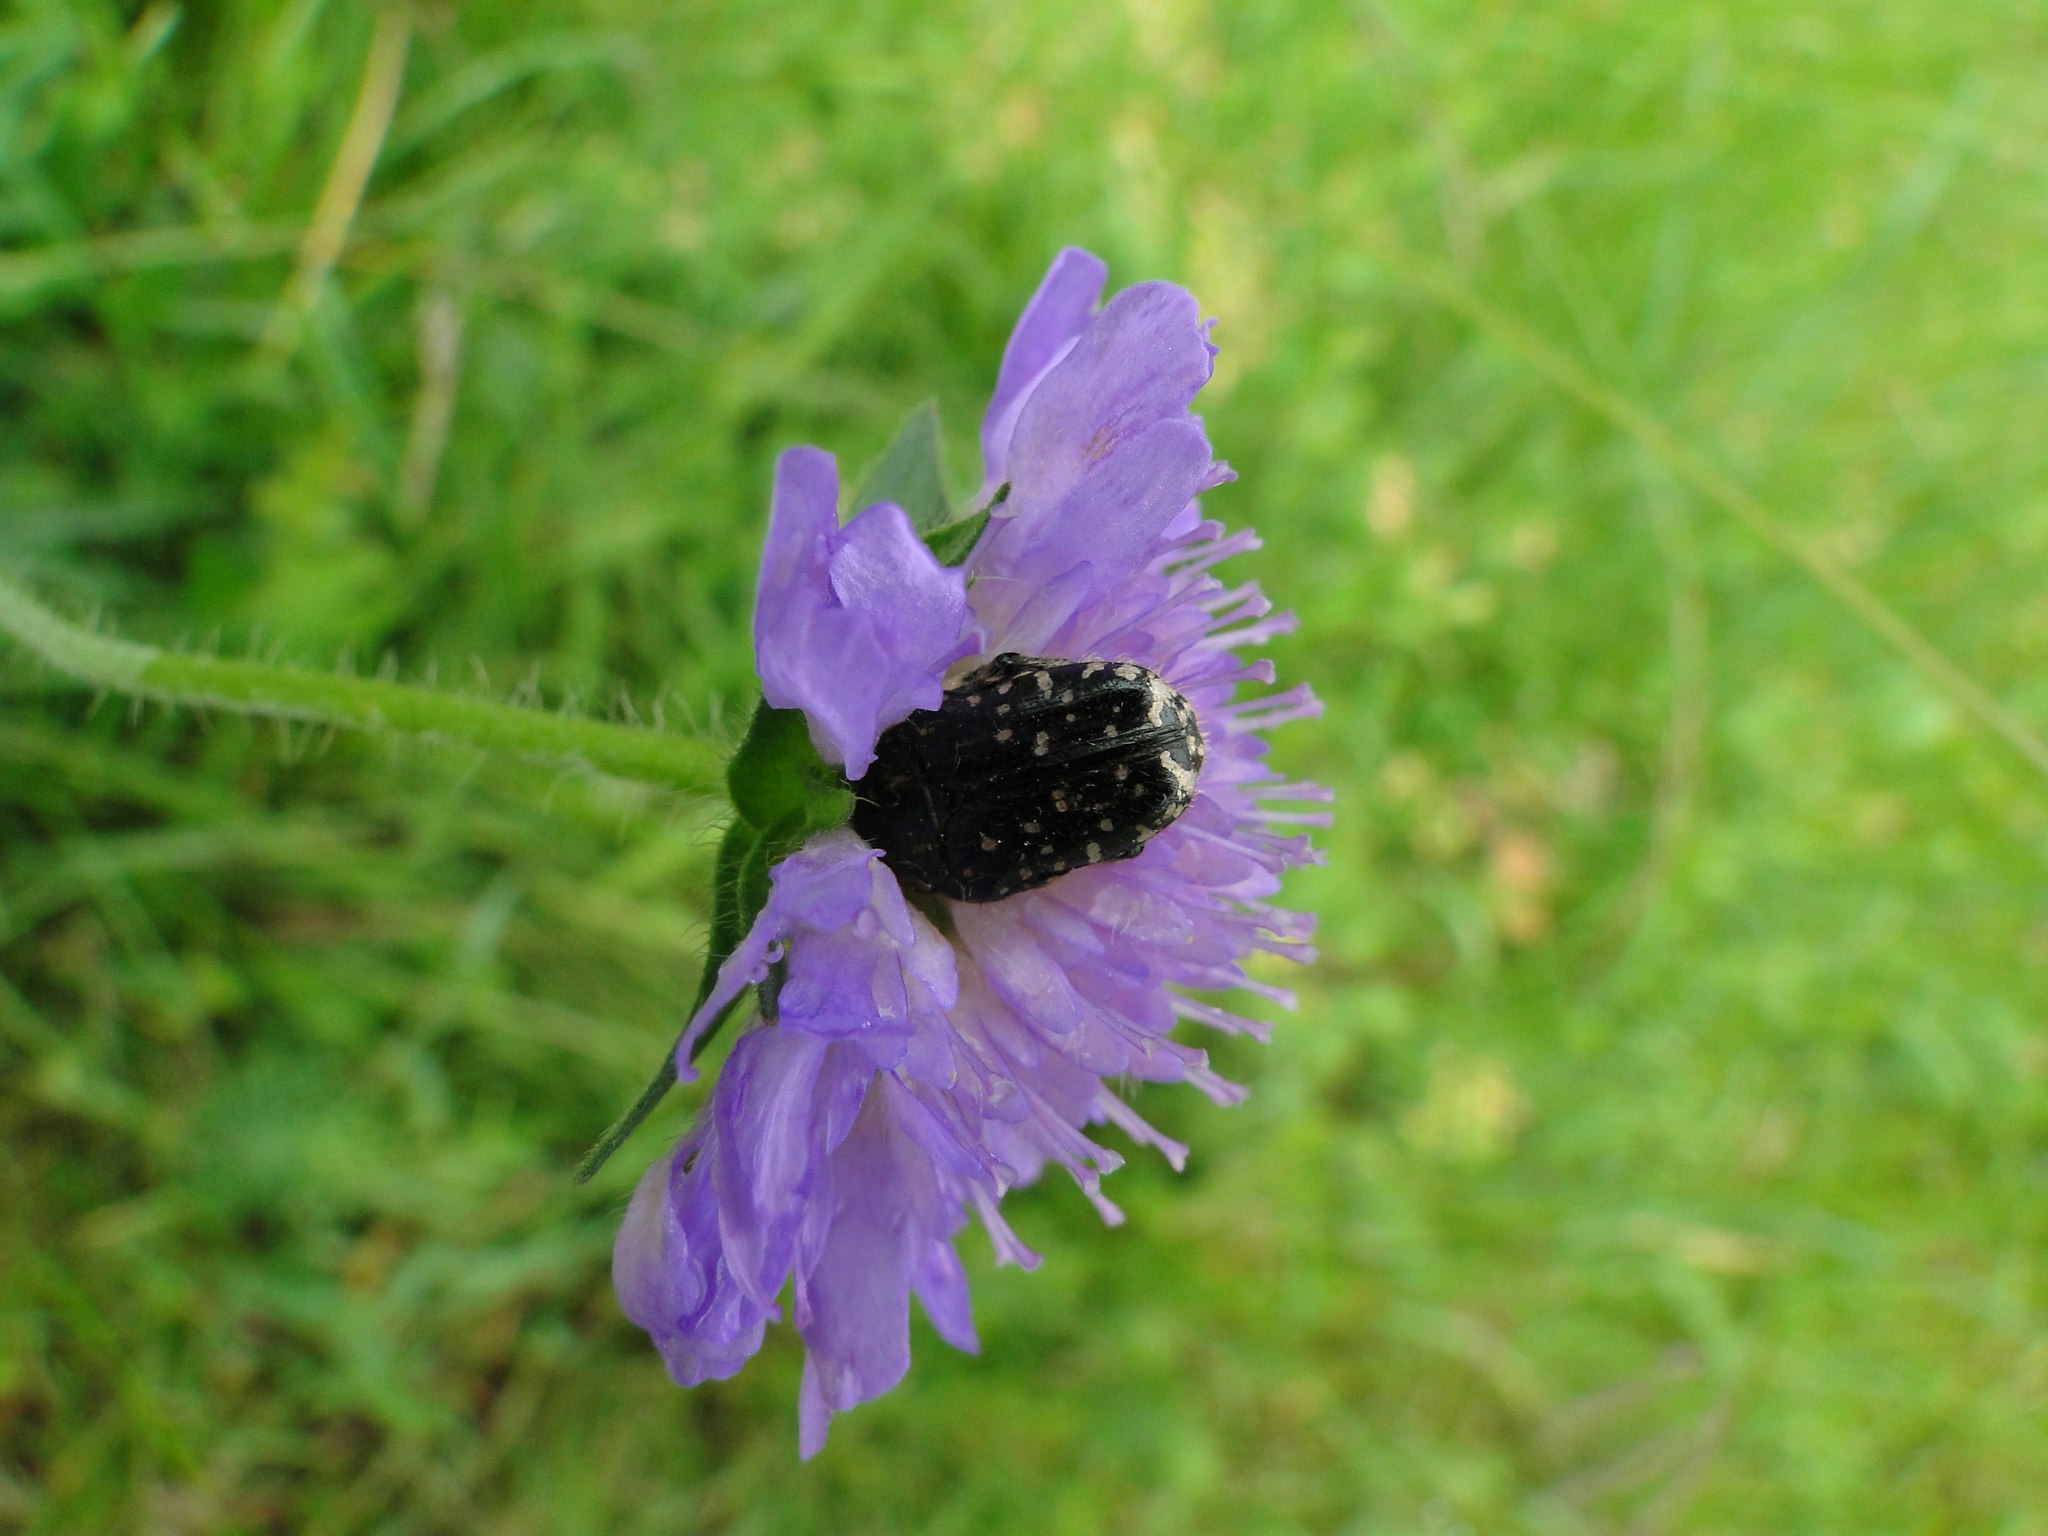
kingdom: Animalia
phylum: Arthropoda
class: Insecta
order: Coleoptera
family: Scarabaeidae
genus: Oxythyrea
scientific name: Oxythyrea funesta
